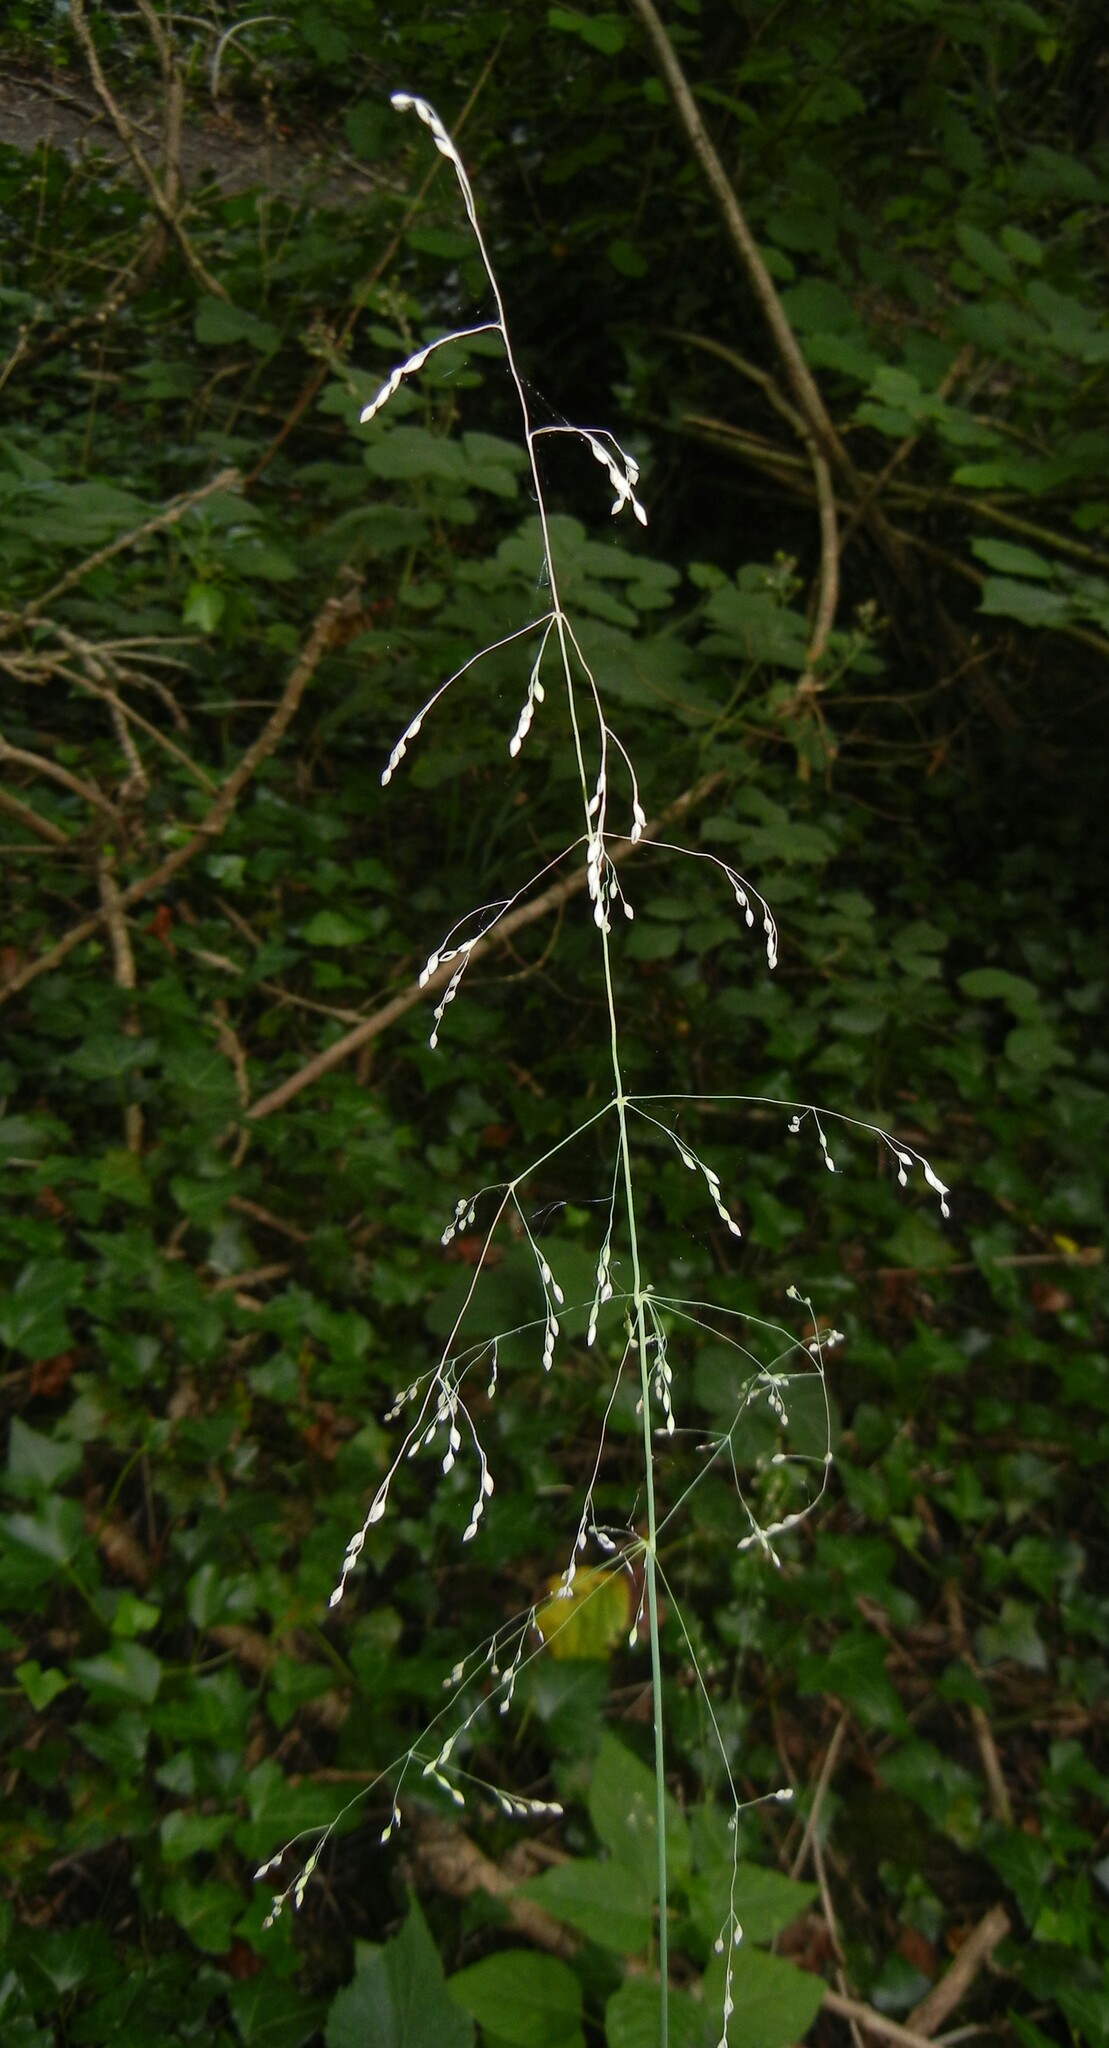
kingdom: Plantae
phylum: Tracheophyta
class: Liliopsida
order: Poales
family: Poaceae
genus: Milium
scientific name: Milium effusum
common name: Wood millet
